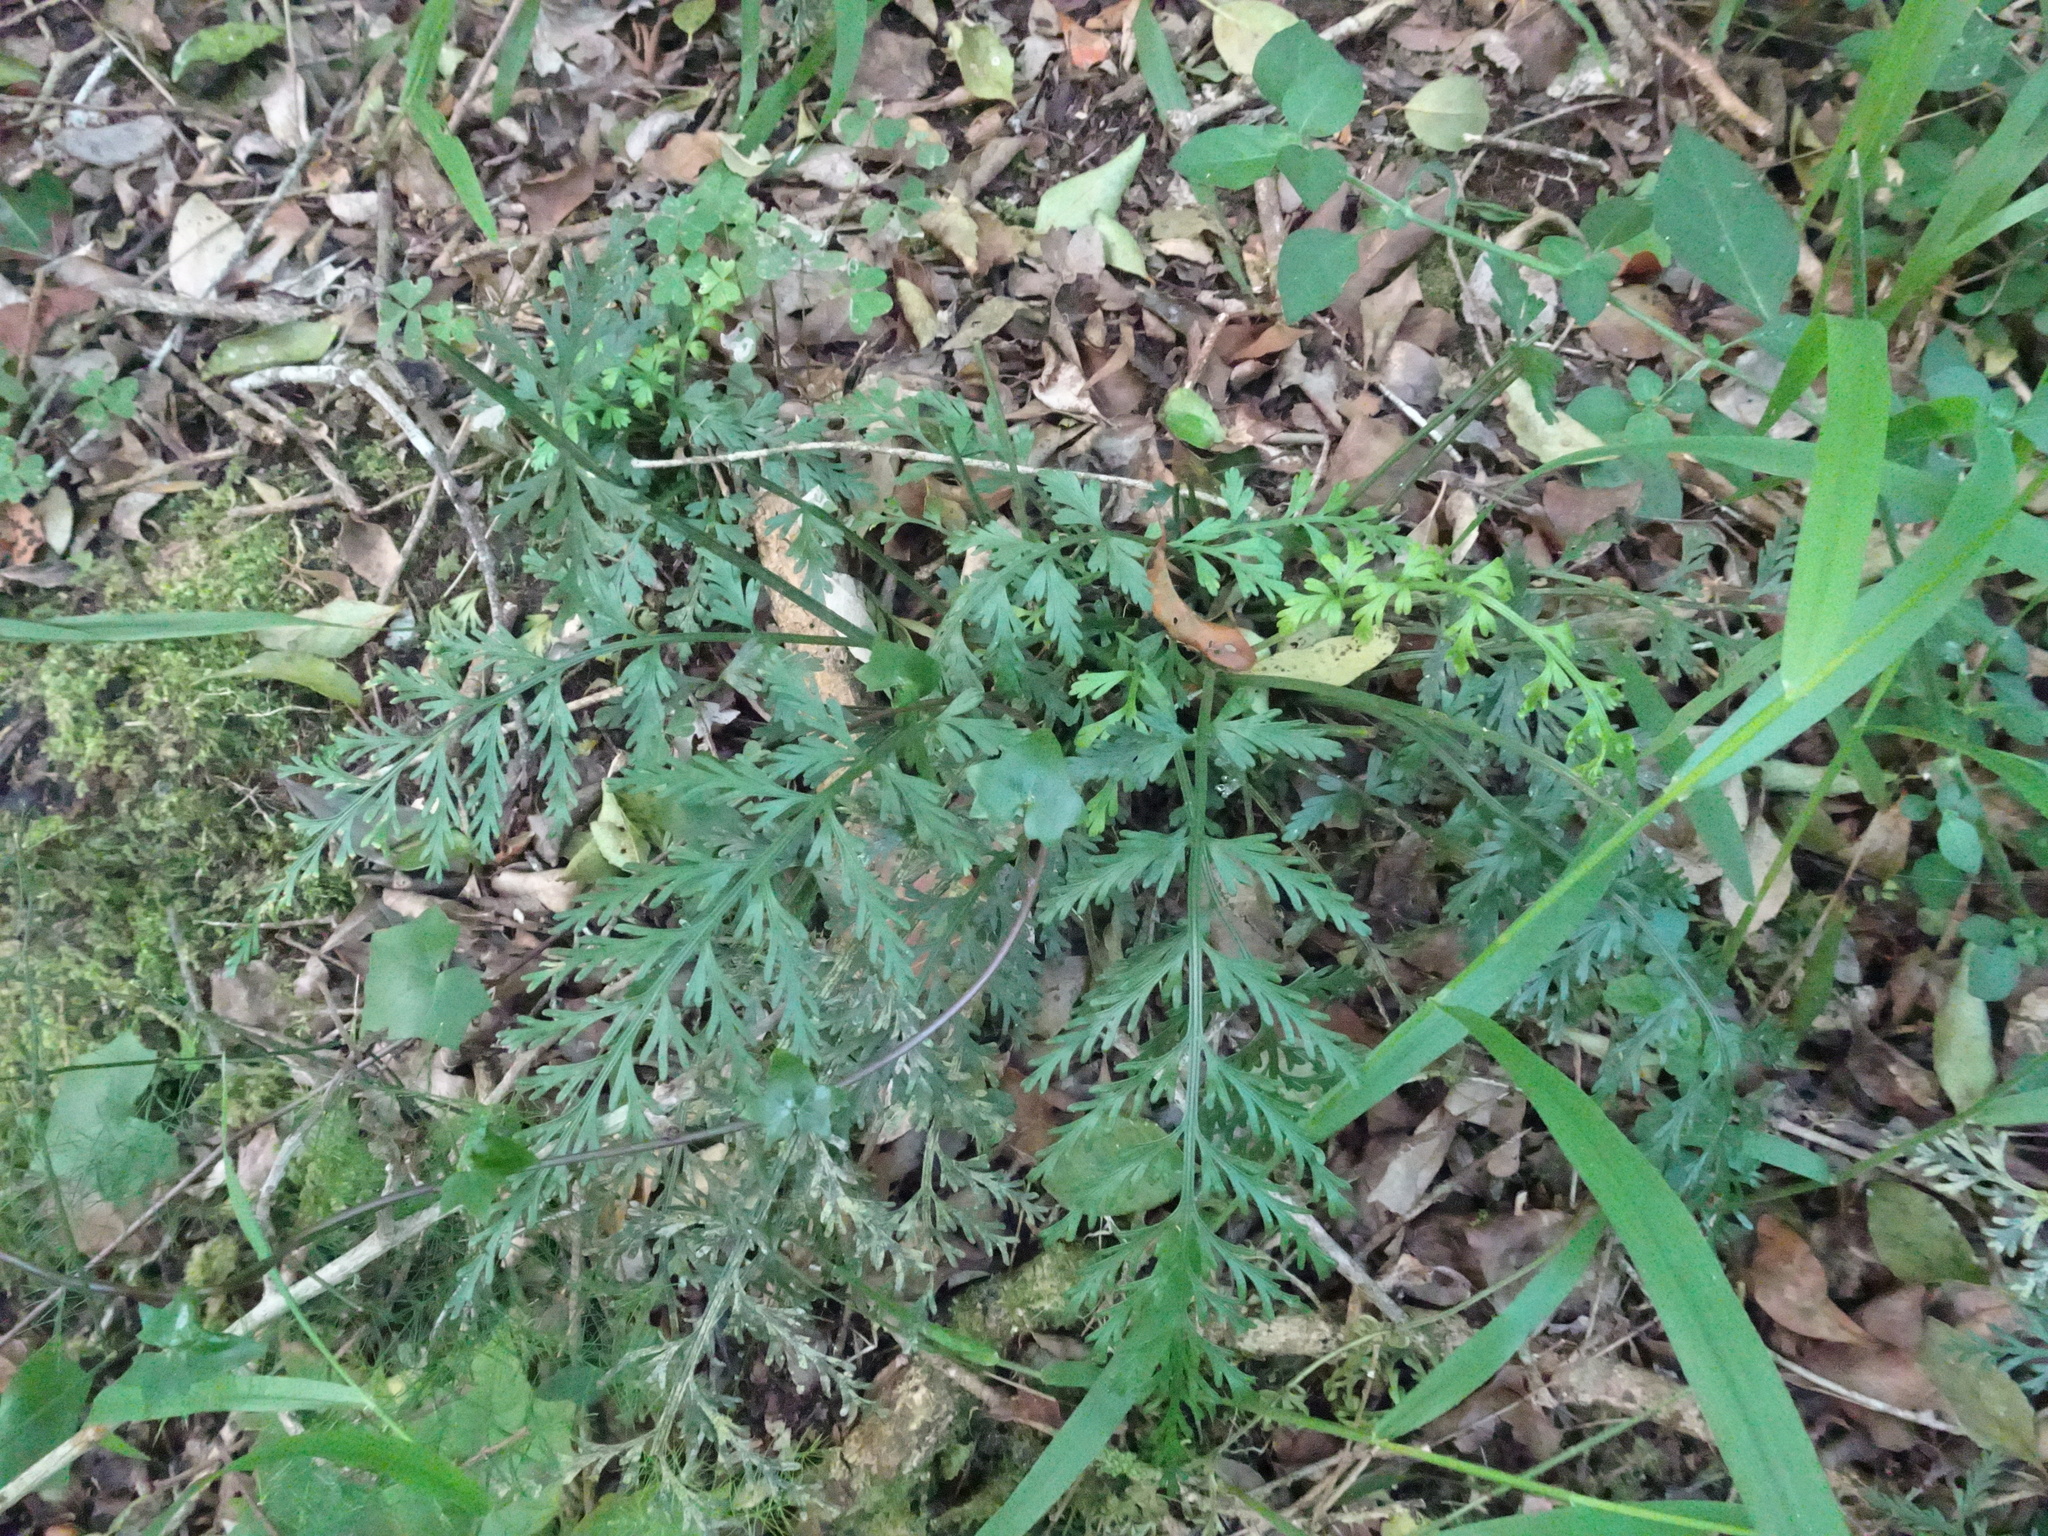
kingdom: Plantae
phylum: Tracheophyta
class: Polypodiopsida
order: Polypodiales
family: Aspleniaceae
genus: Asplenium
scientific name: Asplenium rutifolium
